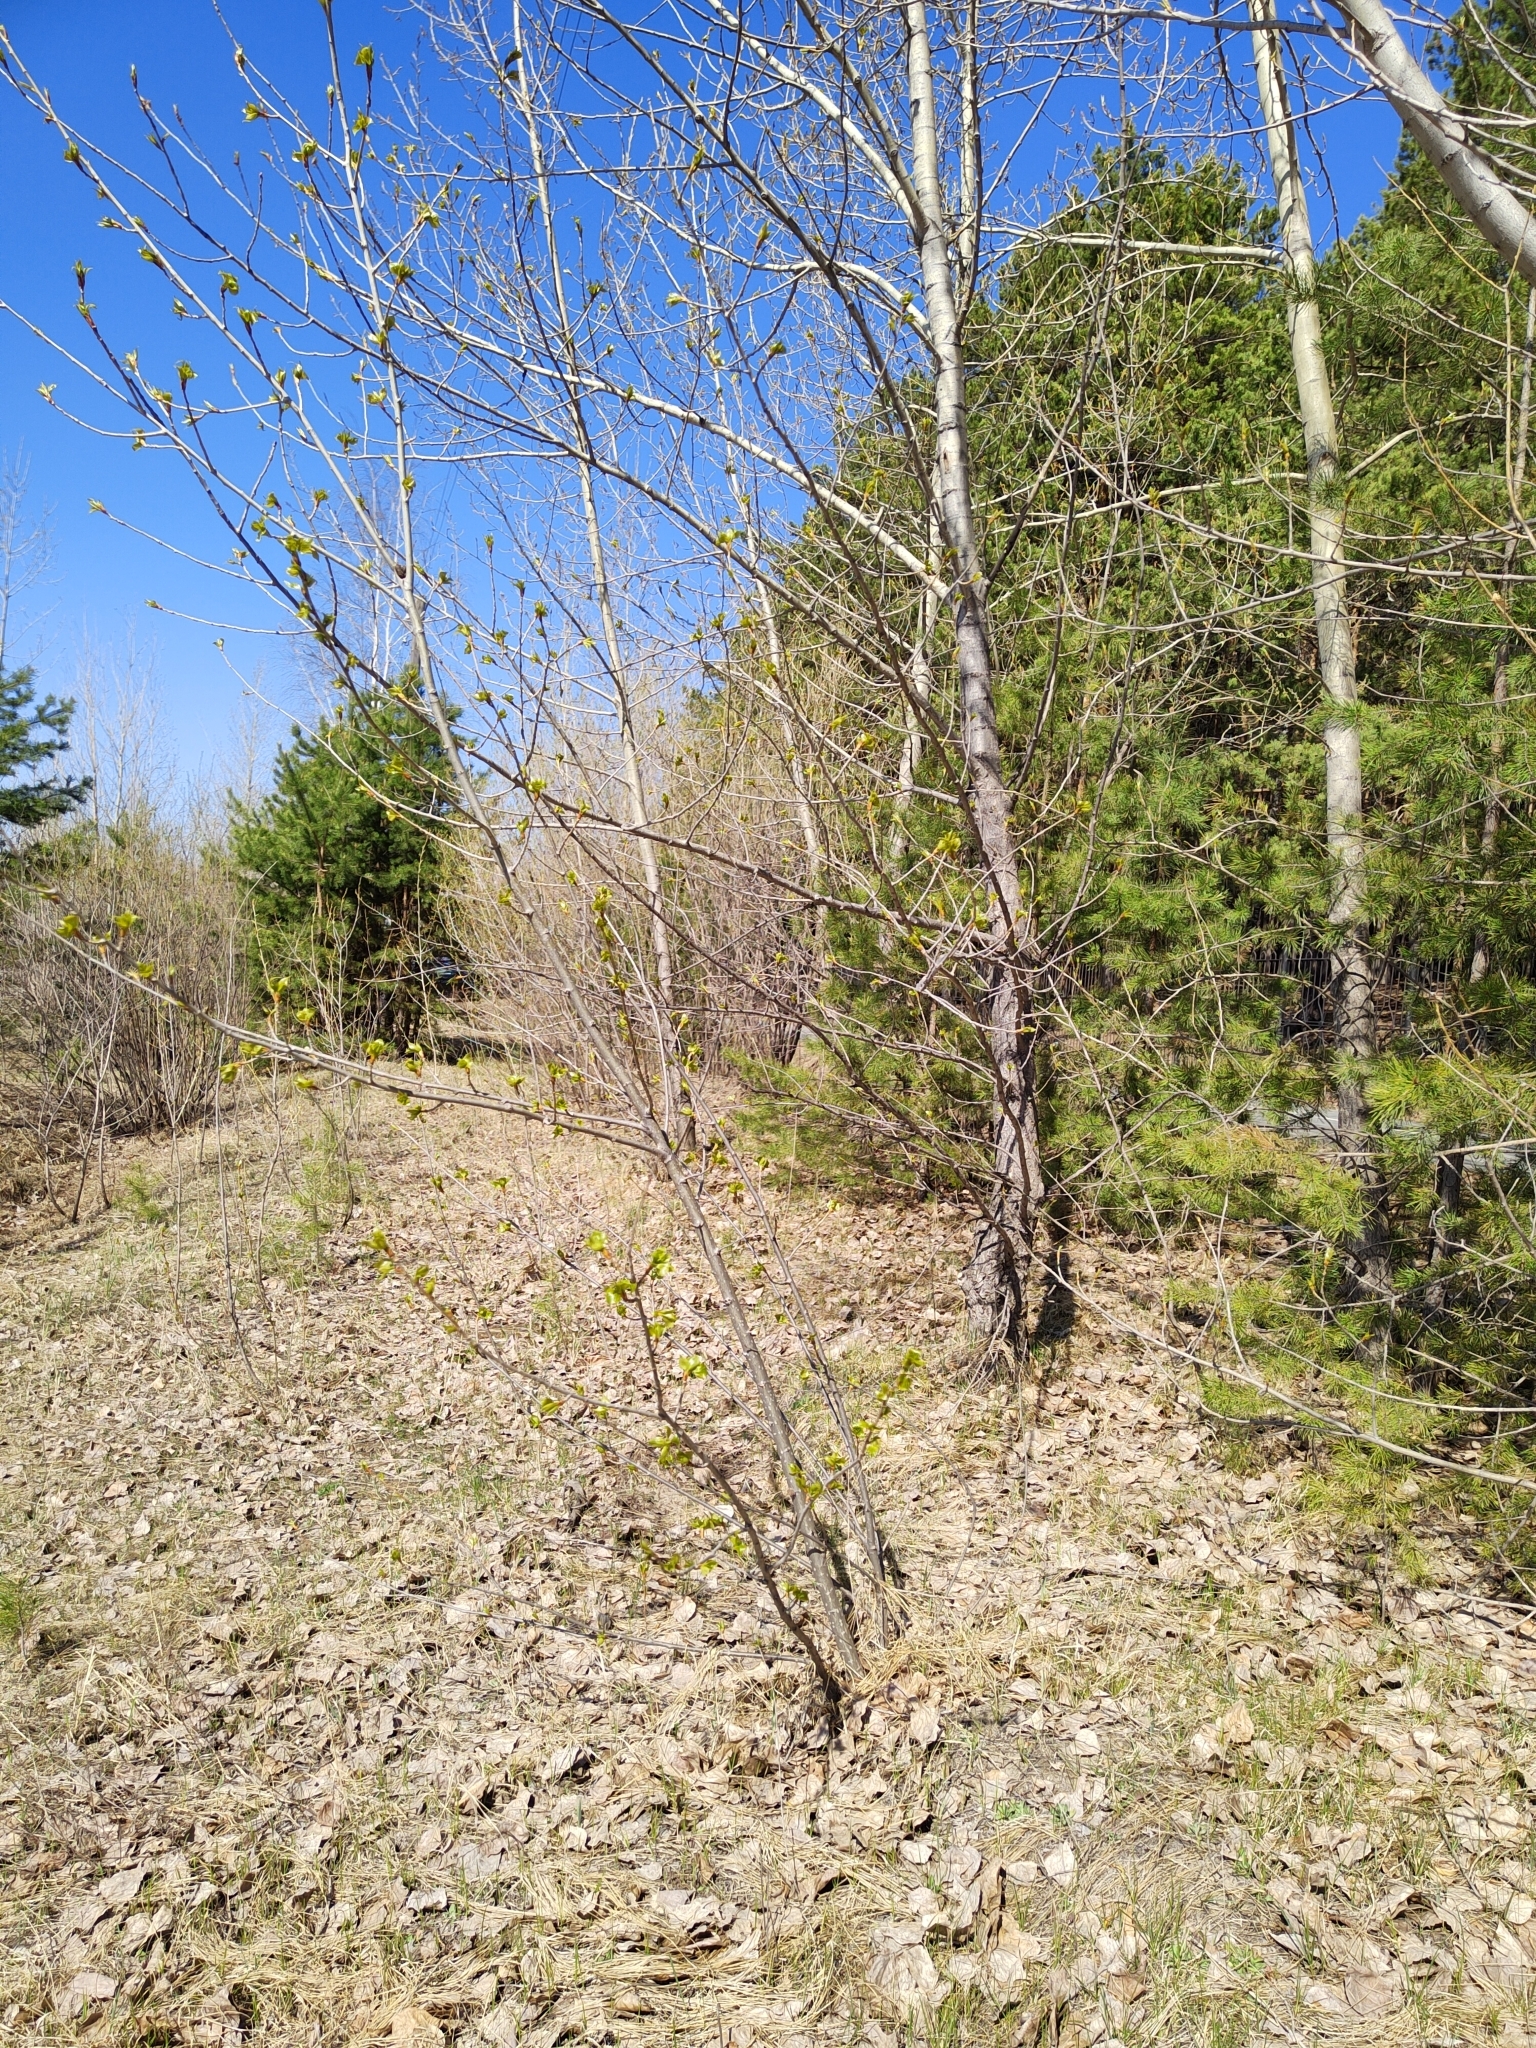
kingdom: Plantae
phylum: Tracheophyta
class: Magnoliopsida
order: Malpighiales
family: Salicaceae
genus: Populus
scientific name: Populus sibirica
